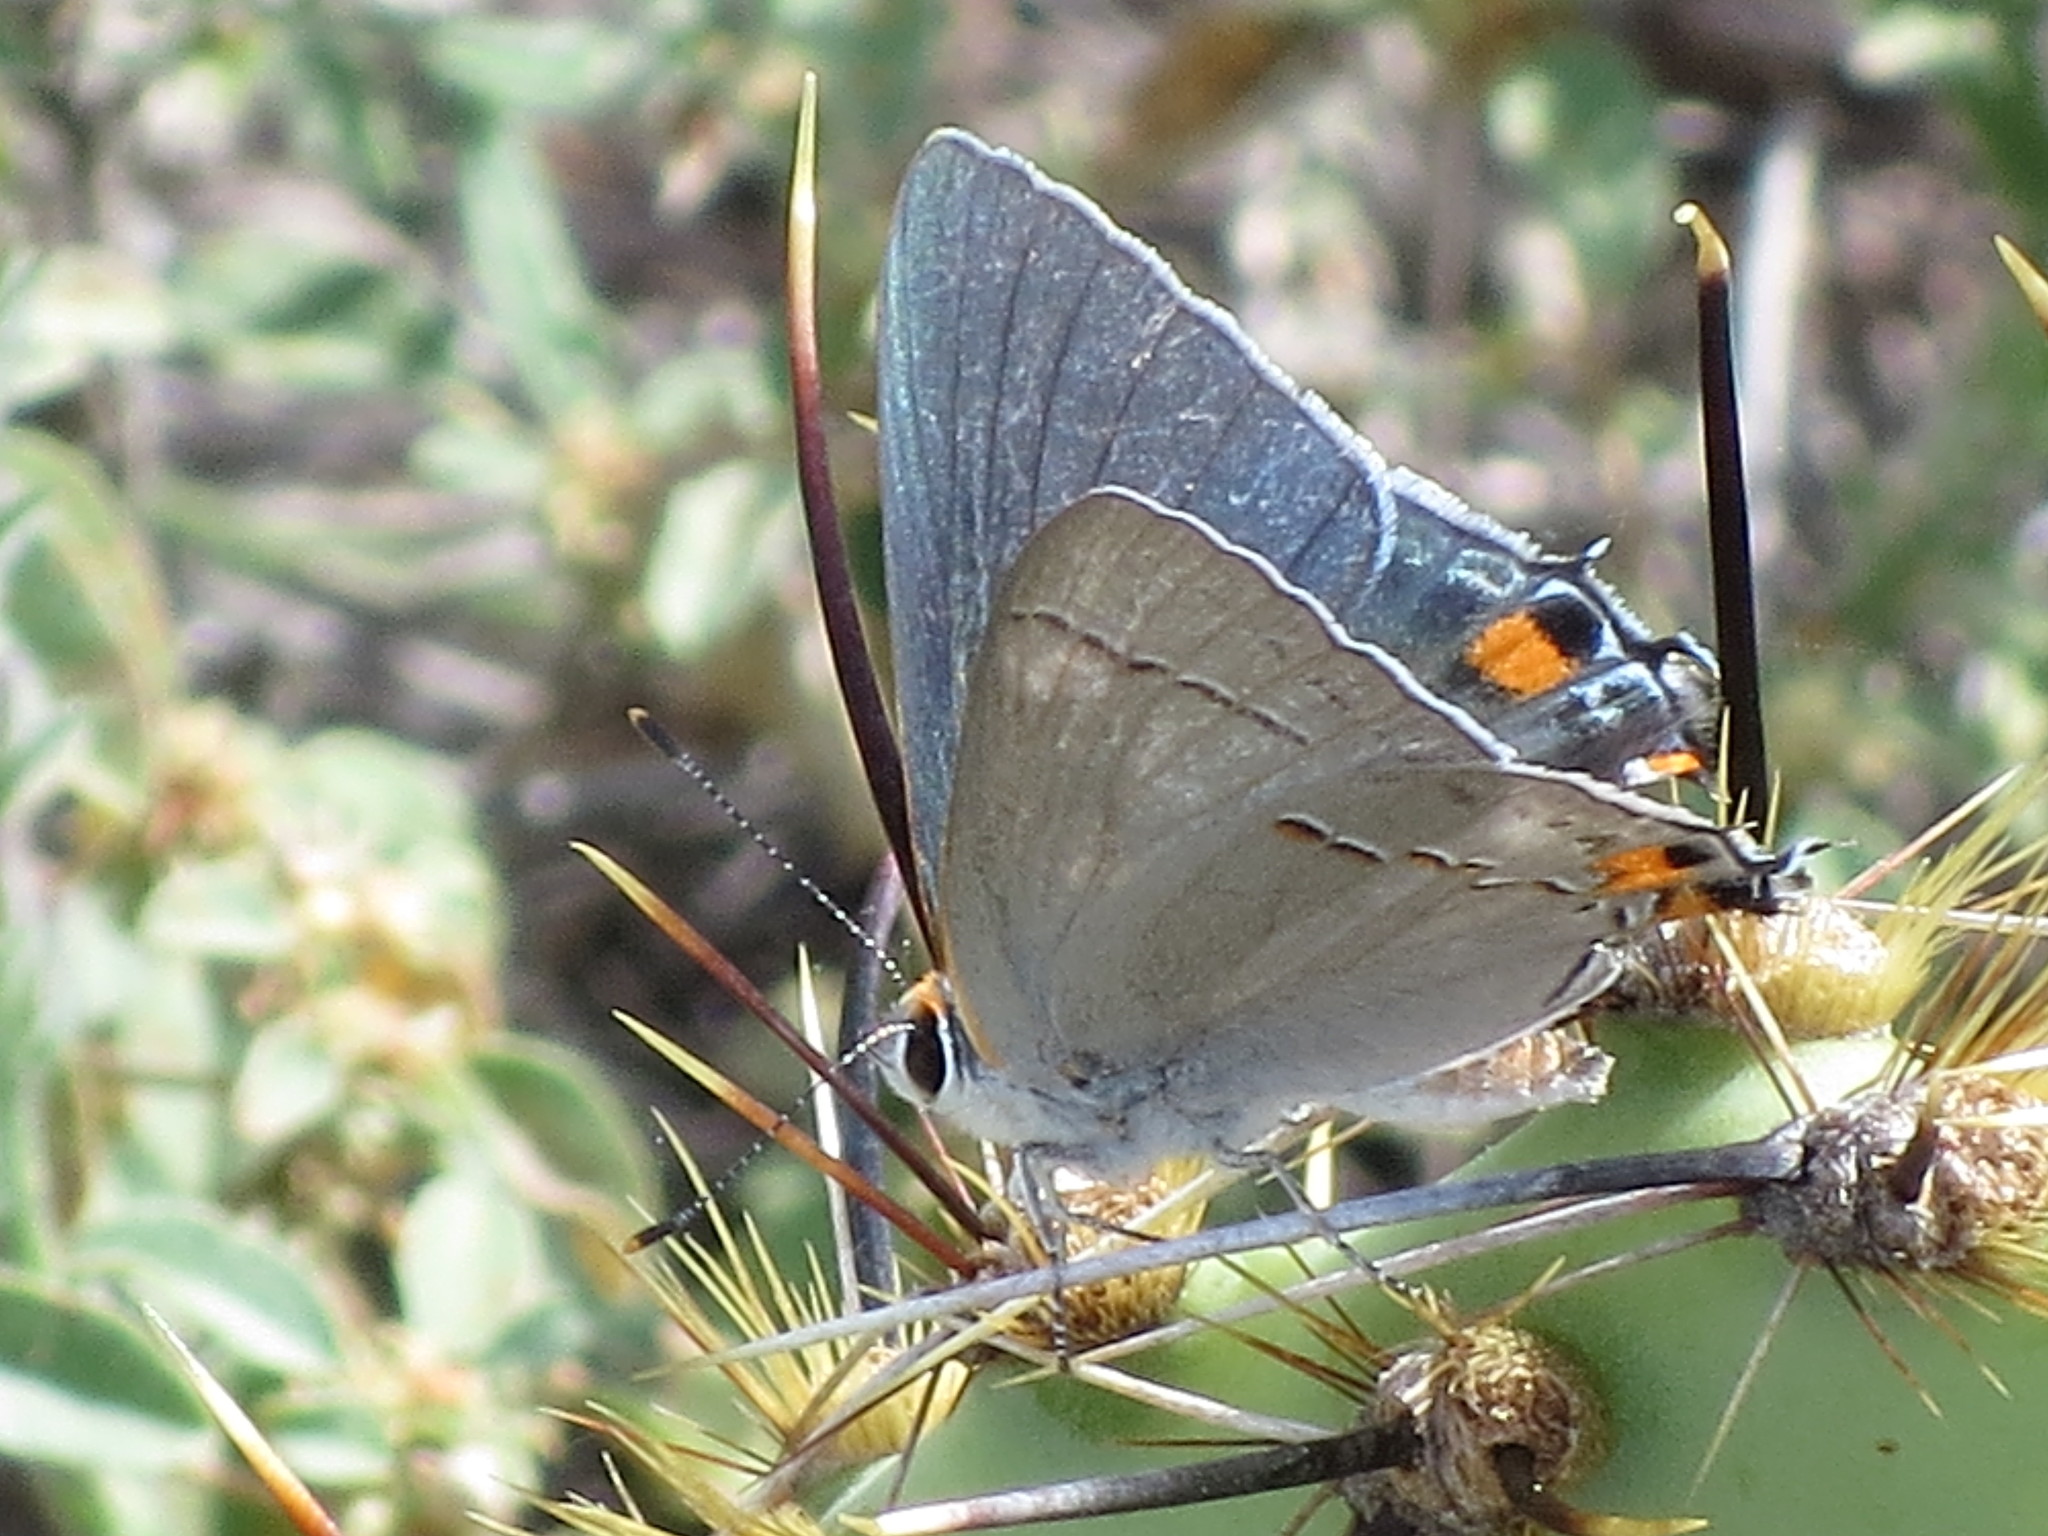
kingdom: Animalia
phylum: Arthropoda
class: Insecta
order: Lepidoptera
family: Lycaenidae
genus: Strymon
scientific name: Strymon melinus
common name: Gray hairstreak
